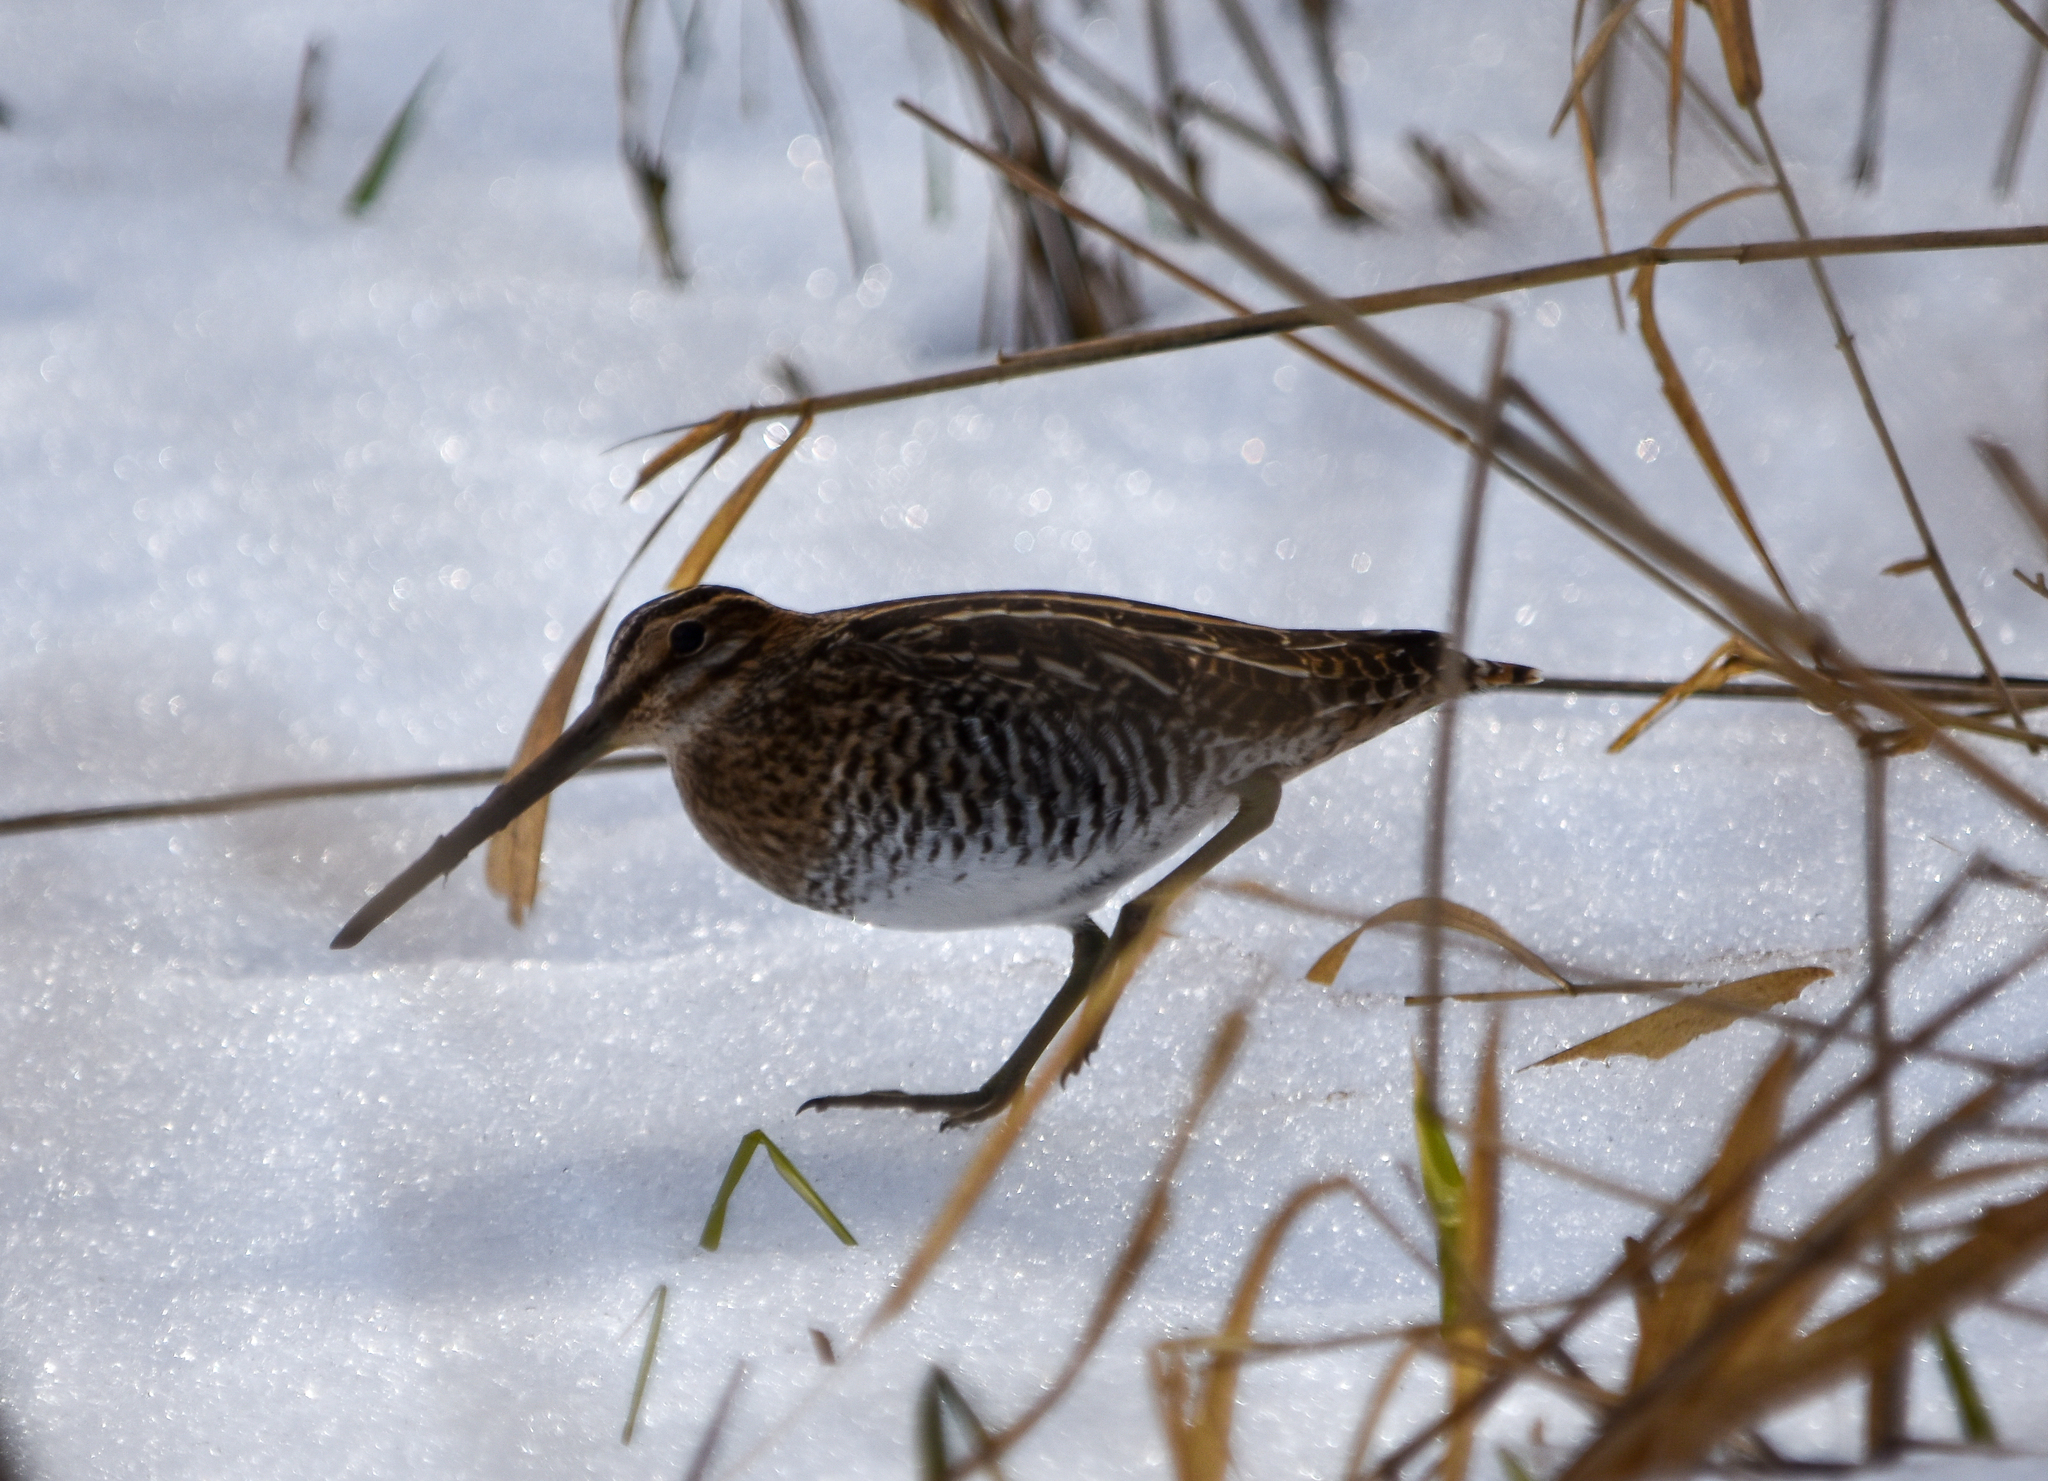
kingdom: Animalia
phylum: Chordata
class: Aves
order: Charadriiformes
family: Scolopacidae
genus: Gallinago
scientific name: Gallinago delicata
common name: Wilson's snipe
